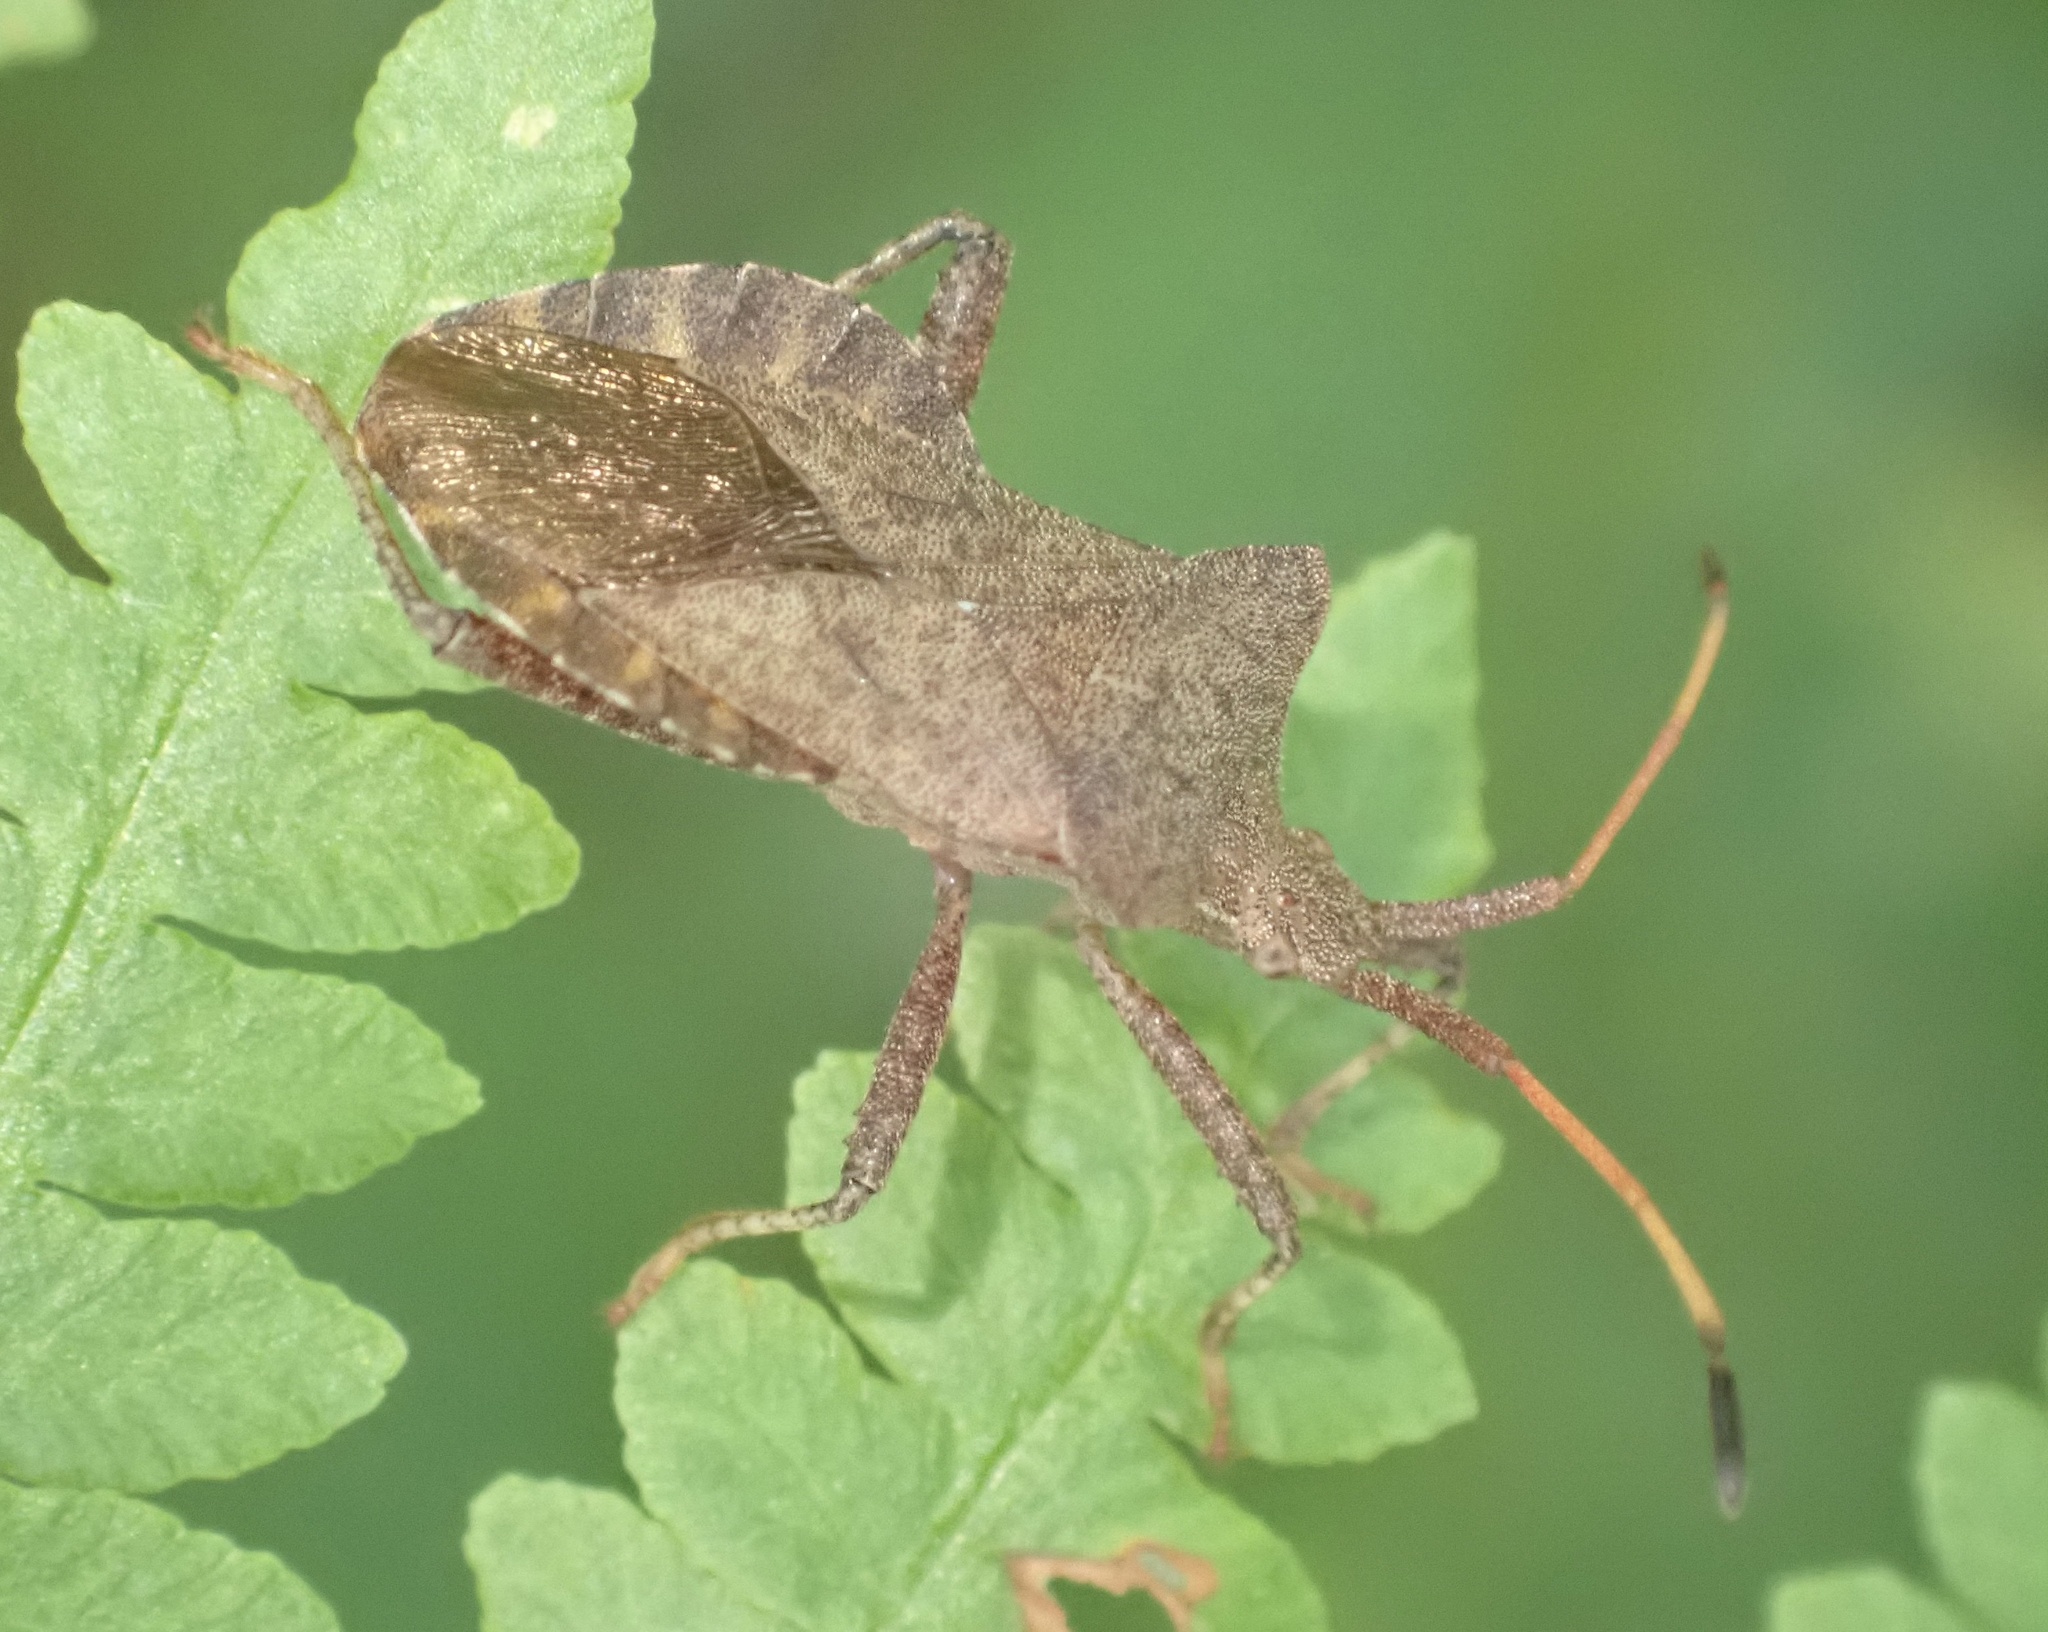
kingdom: Animalia
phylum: Arthropoda
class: Insecta
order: Hemiptera
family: Coreidae
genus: Coreus
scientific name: Coreus marginatus
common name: Dock bug
